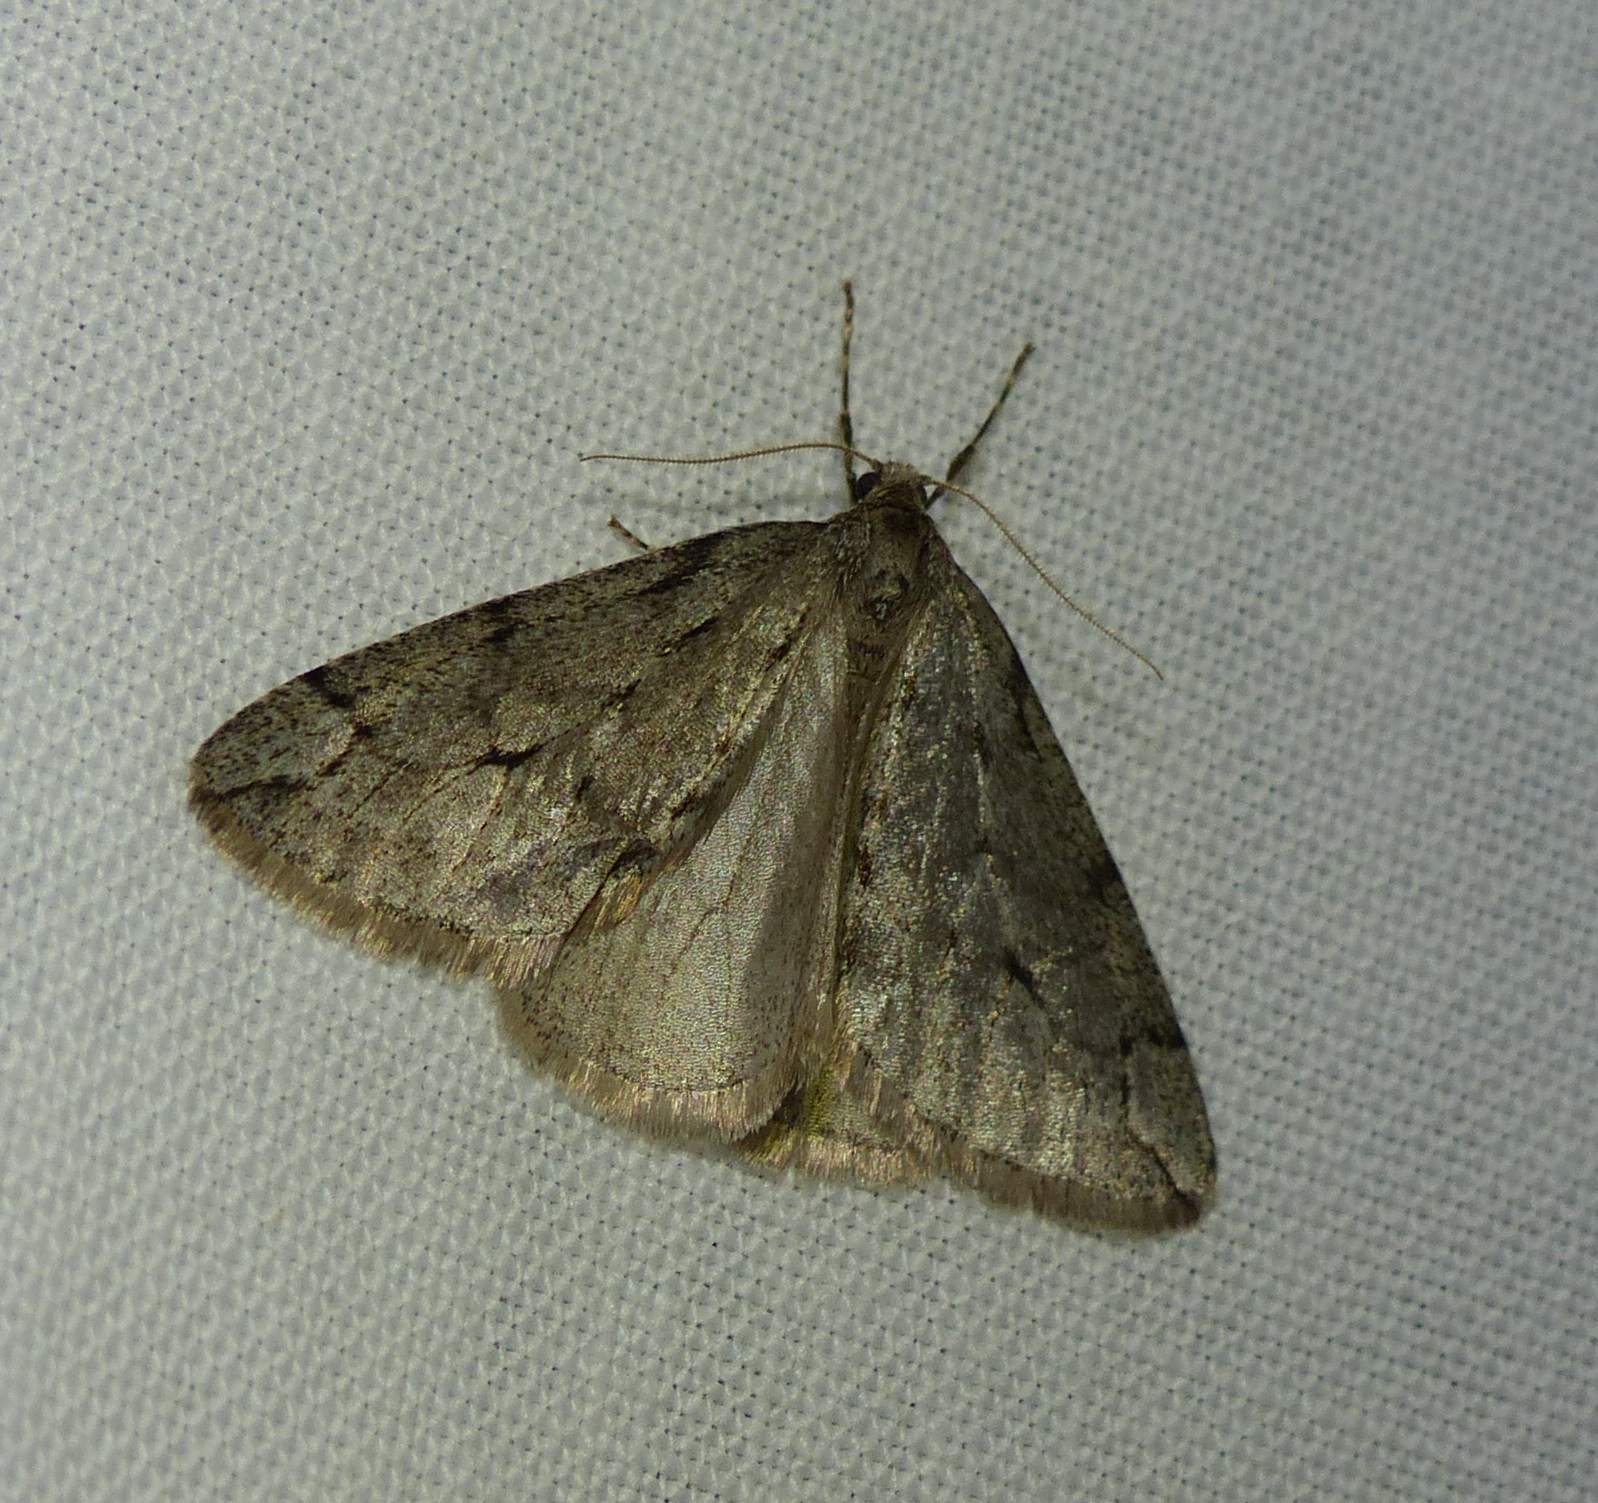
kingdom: Animalia
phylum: Arthropoda
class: Insecta
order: Lepidoptera
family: Geometridae
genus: Paleacrita
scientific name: Paleacrita vernata
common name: Spring cankerworm
